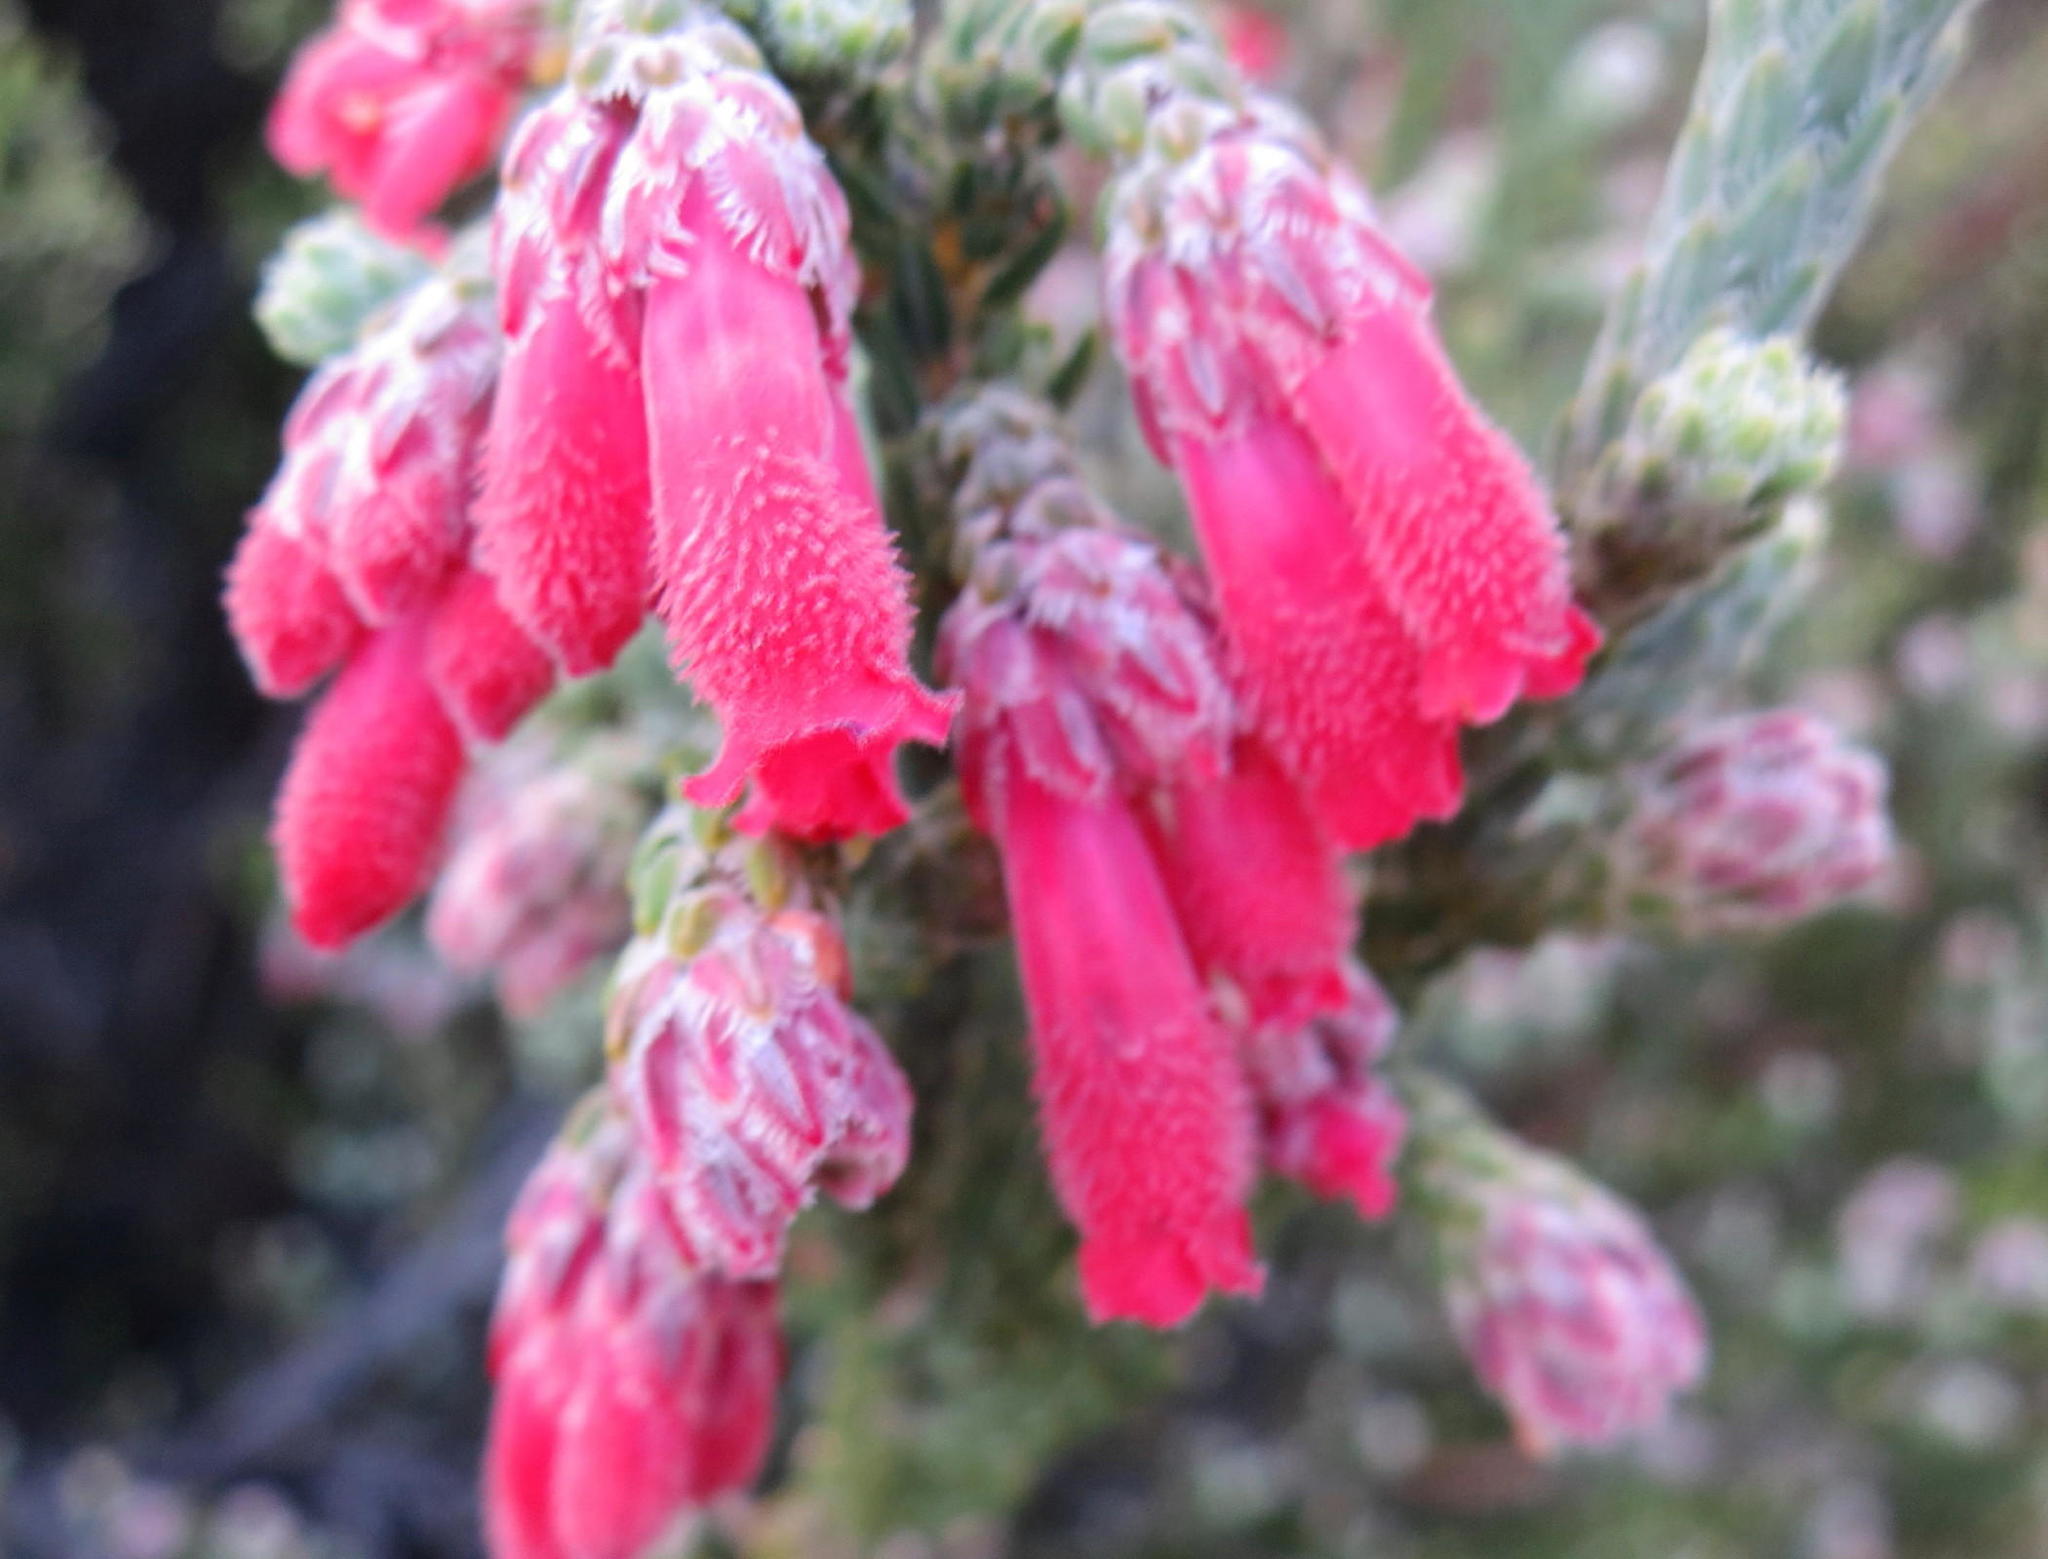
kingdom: Plantae
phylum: Tracheophyta
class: Magnoliopsida
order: Ericales
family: Ericaceae
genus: Erica
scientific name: Erica strigilifolia
